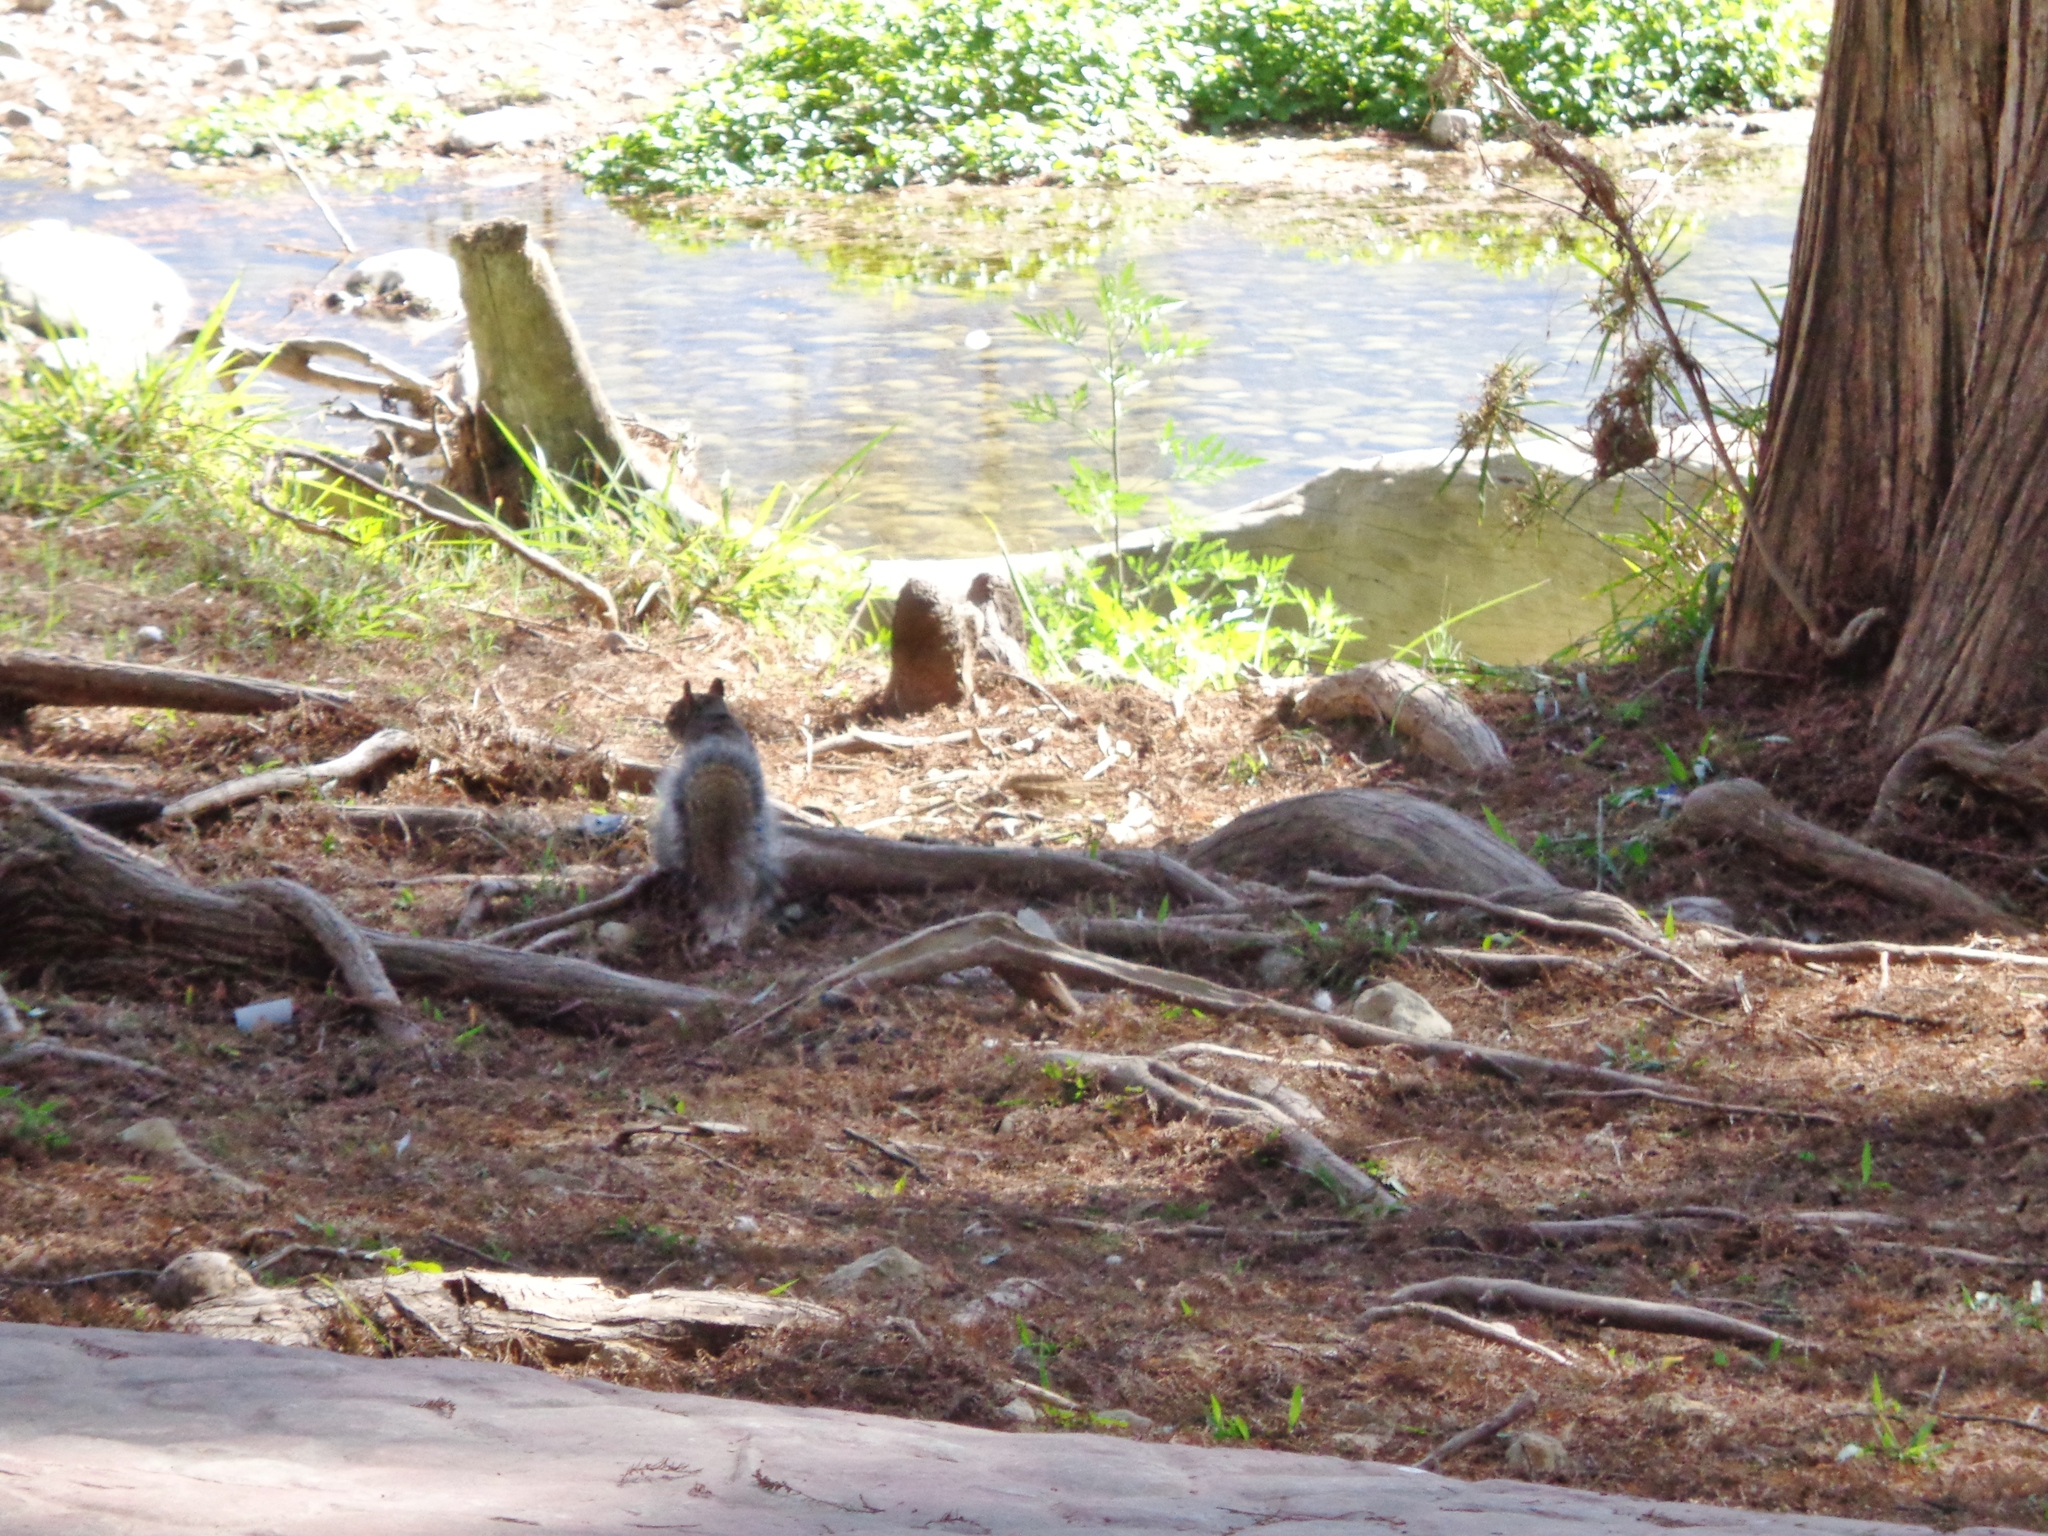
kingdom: Animalia
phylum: Chordata
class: Mammalia
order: Rodentia
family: Sciuridae
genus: Sciurus
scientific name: Sciurus alleni
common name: Allen's squirrel
